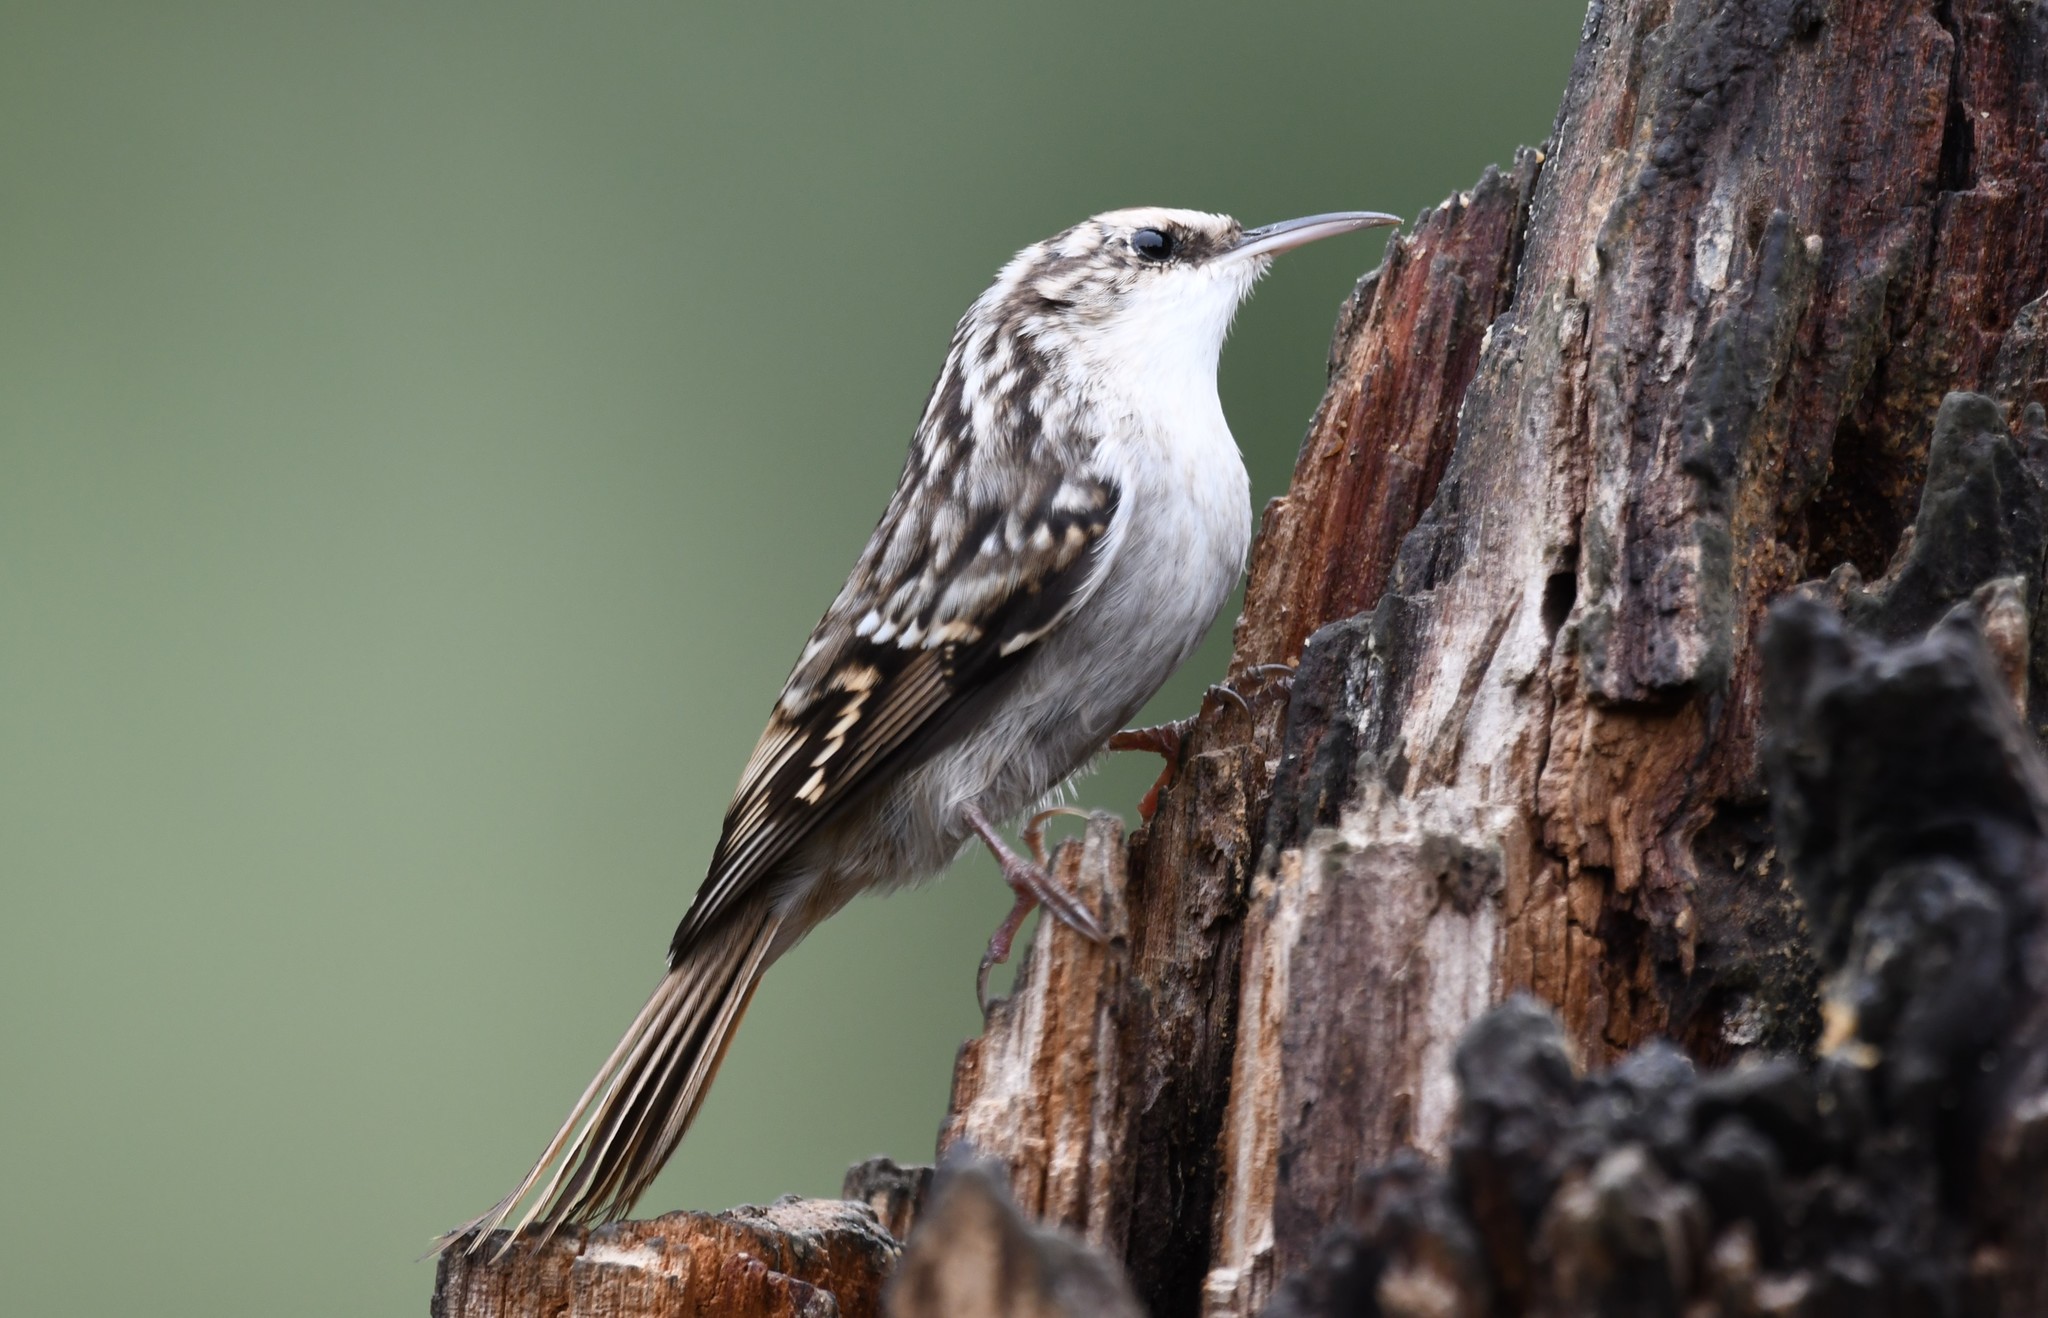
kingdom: Animalia
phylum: Chordata
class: Aves
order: Passeriformes
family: Certhiidae
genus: Certhia
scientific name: Certhia brachydactyla
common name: Short-toed treecreeper
